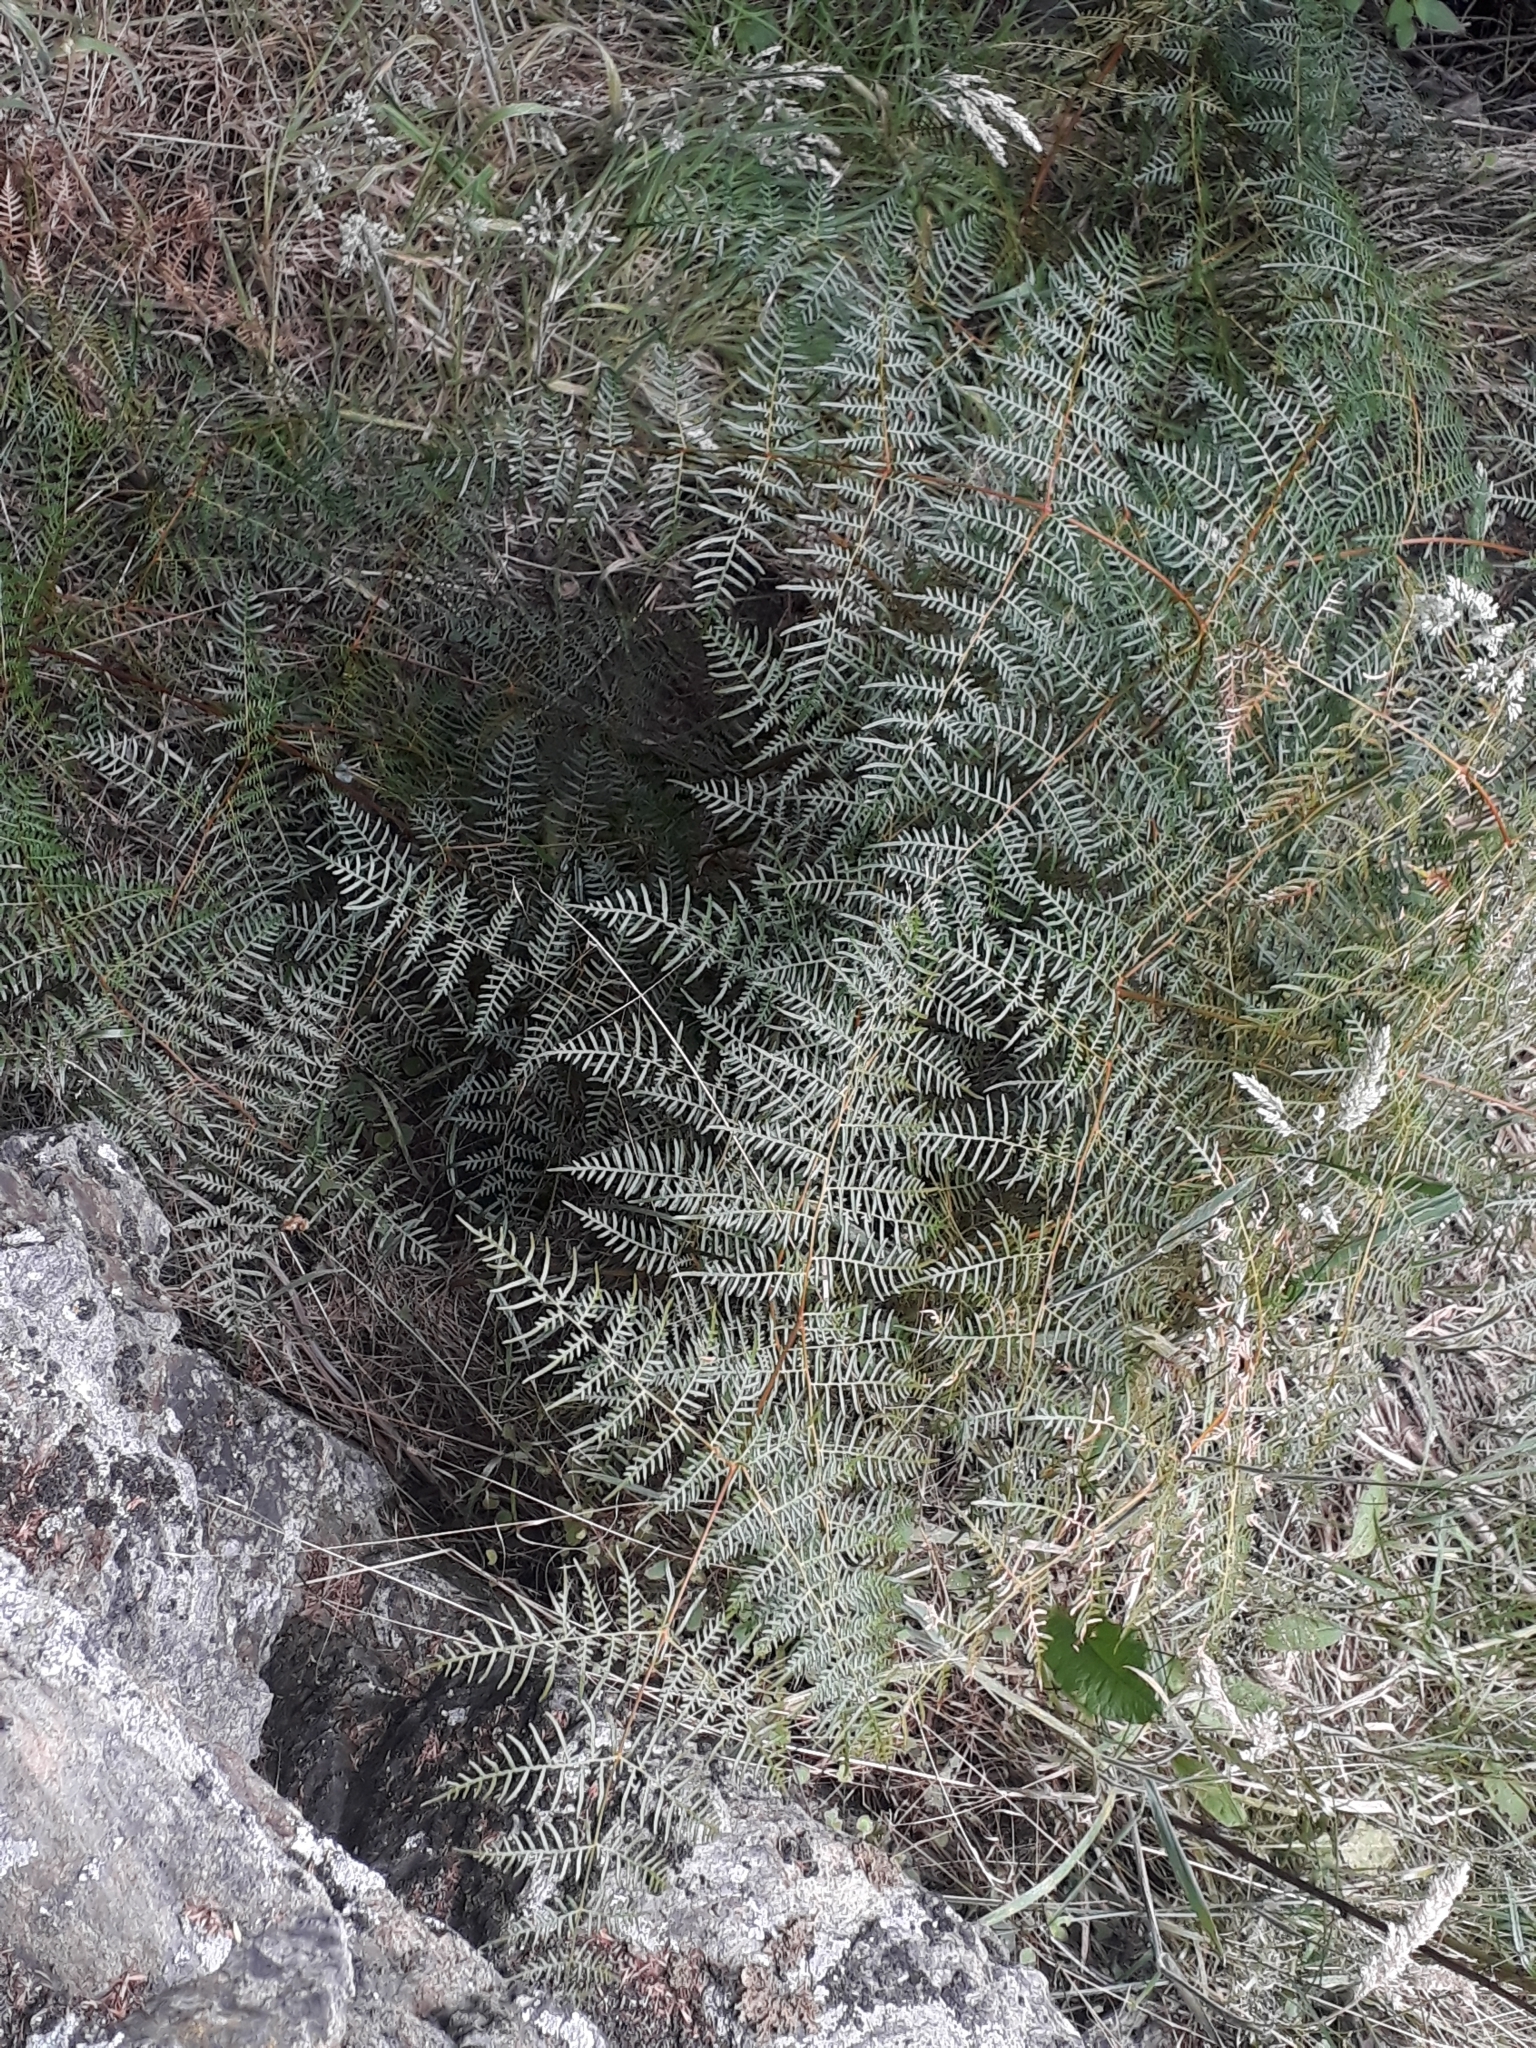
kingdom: Plantae
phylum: Tracheophyta
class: Polypodiopsida
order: Polypodiales
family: Dennstaedtiaceae
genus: Pteridium
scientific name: Pteridium esculentum
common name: Bracken fern
